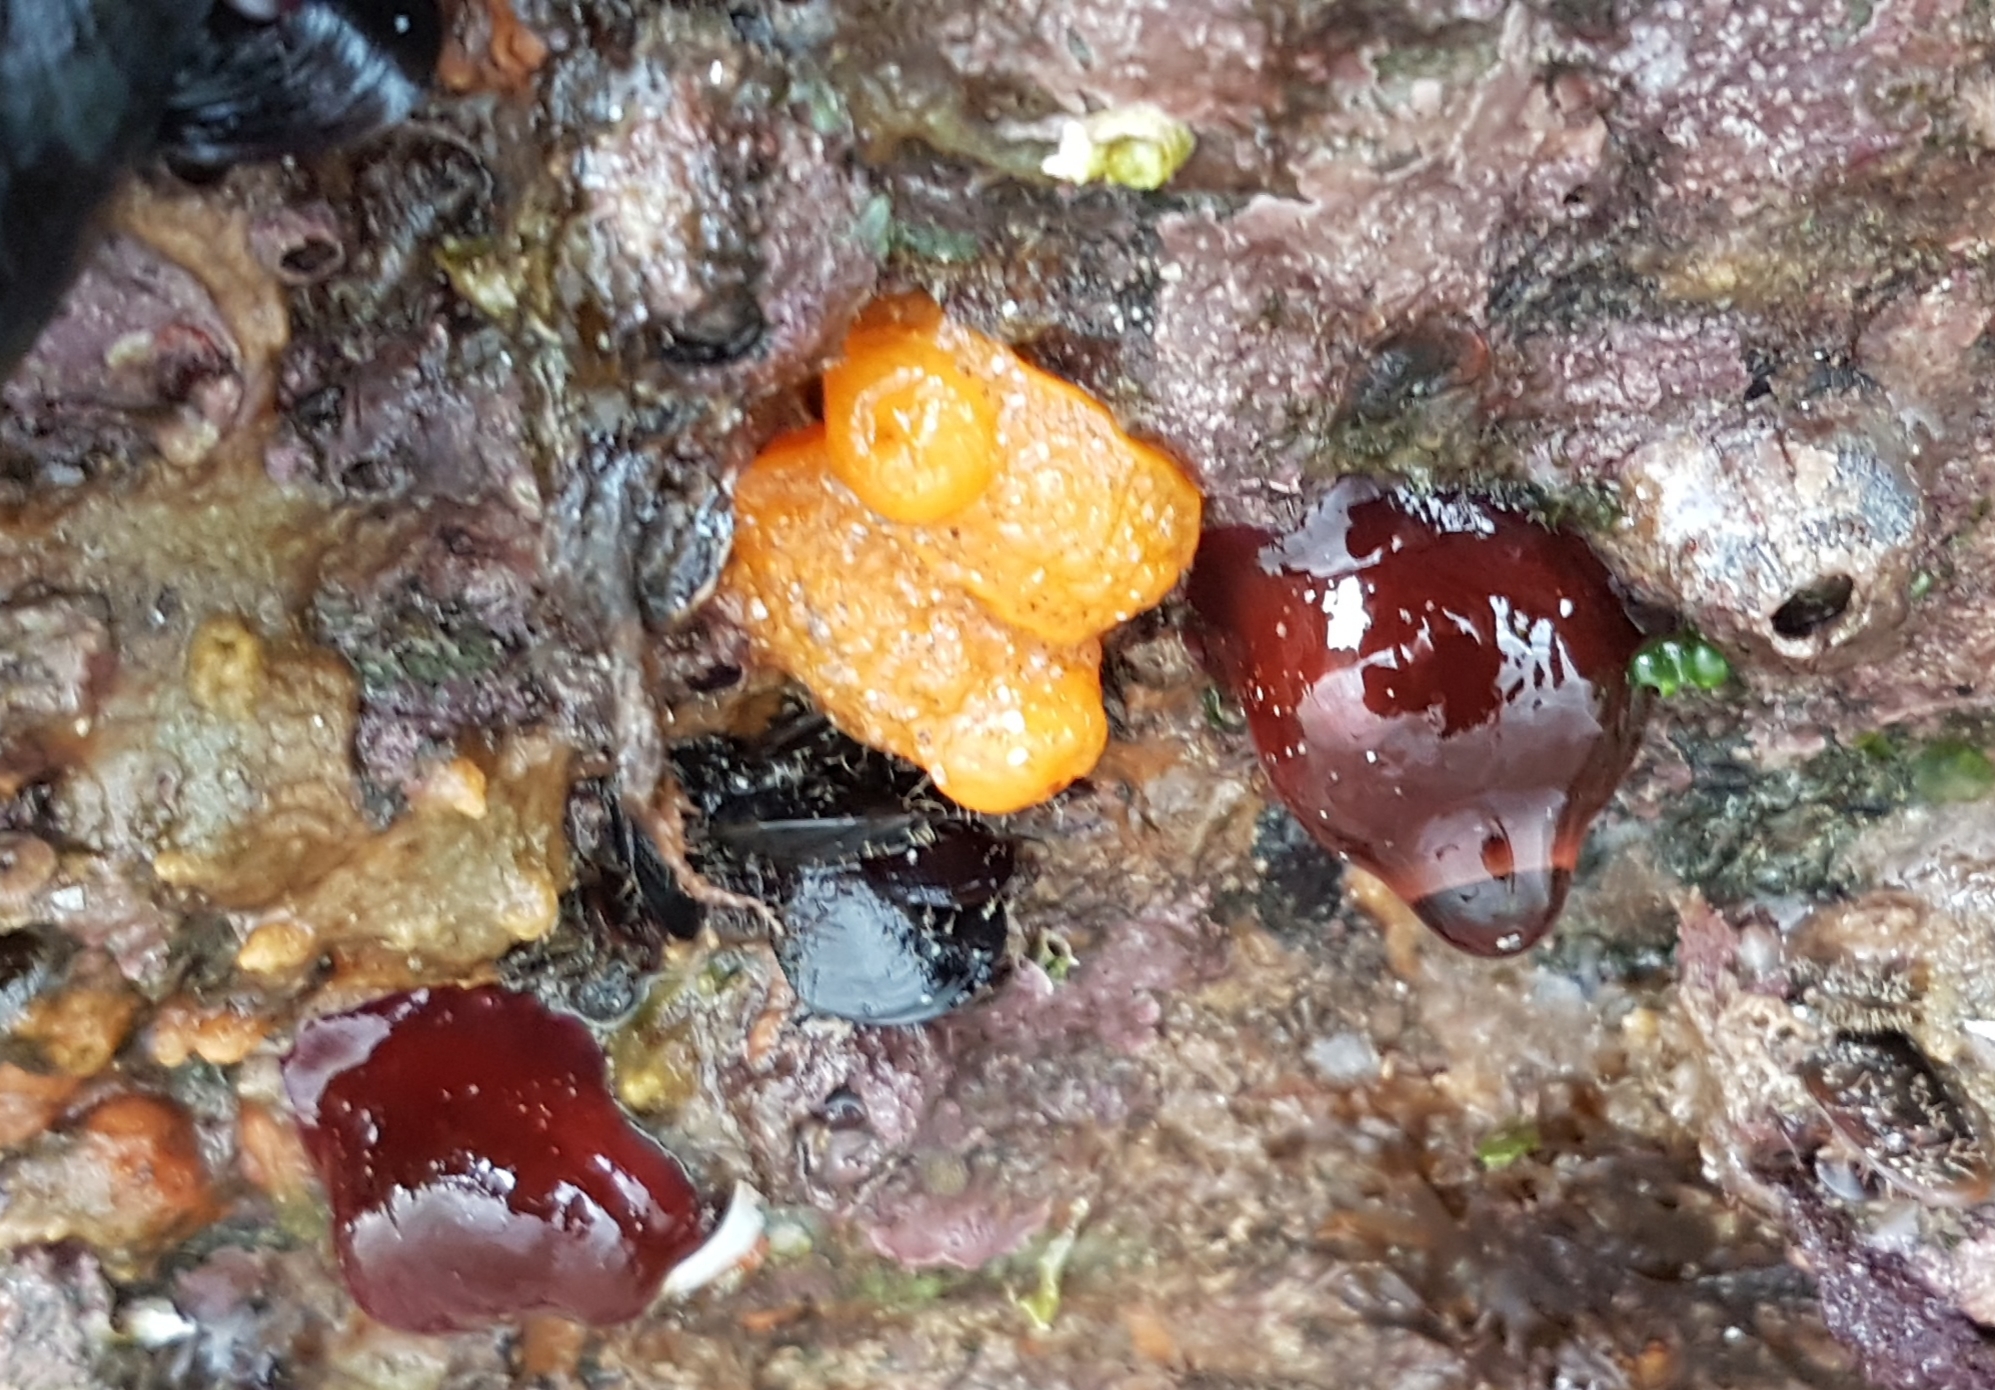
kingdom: Animalia
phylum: Mollusca
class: Gastropoda
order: Nudibranchia
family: Dorididae
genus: Doris
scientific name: Doris verrucosa
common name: Sponge seaslug
